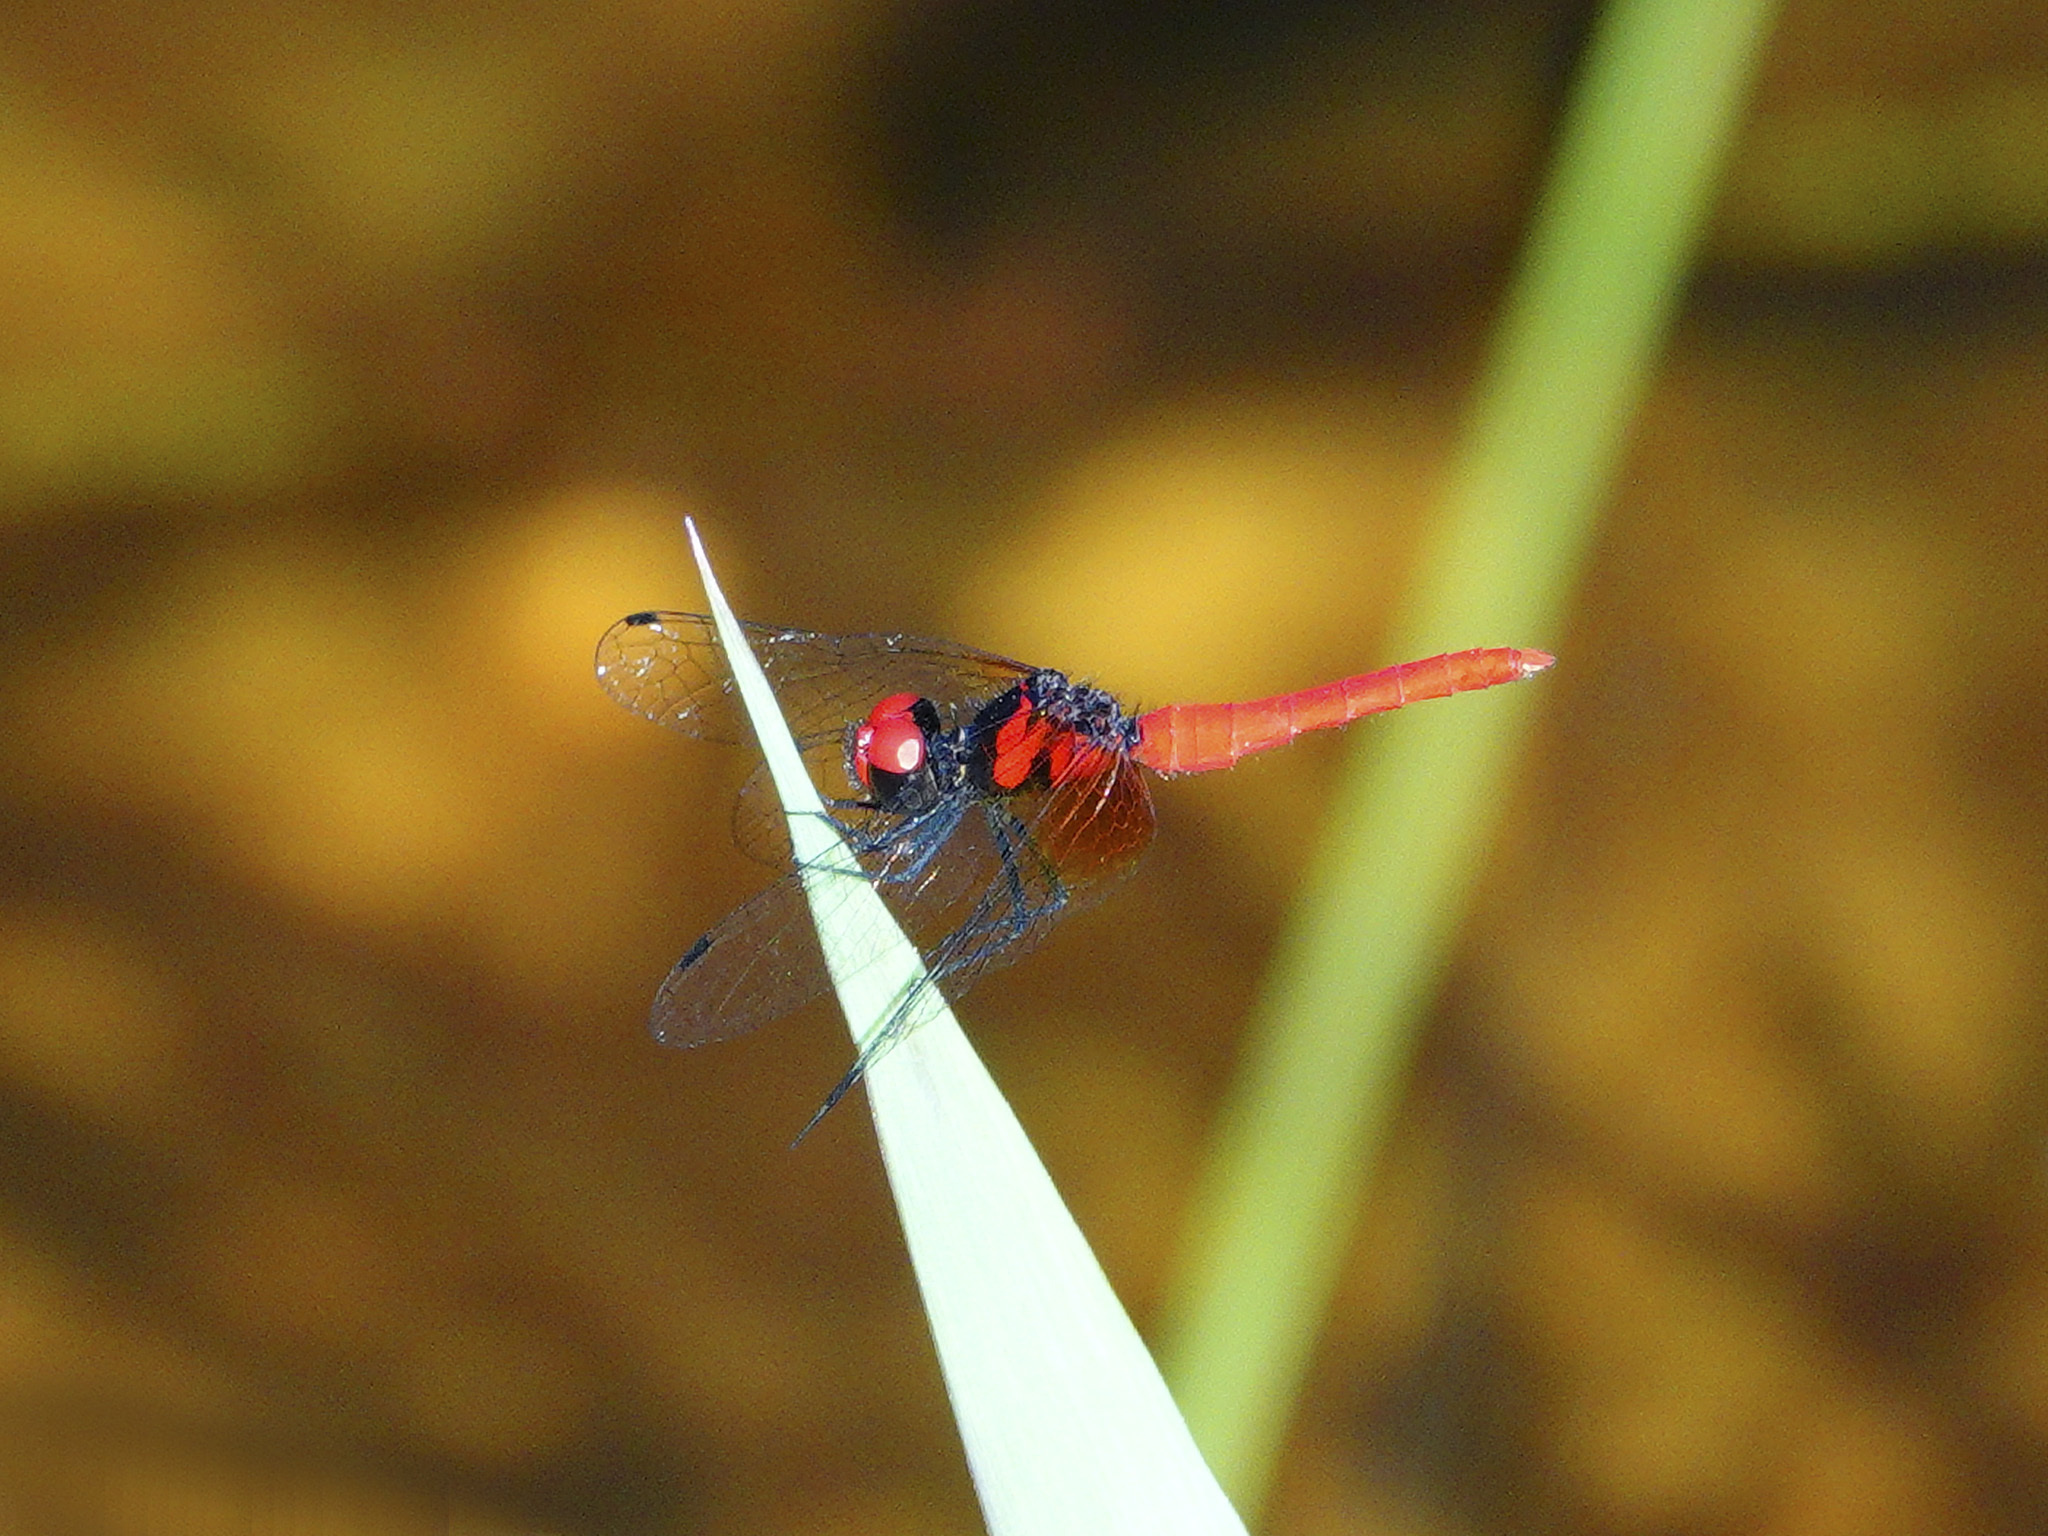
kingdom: Animalia
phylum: Arthropoda
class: Insecta
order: Odonata
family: Libellulidae
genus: Nannophya
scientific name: Nannophya pygmaea
